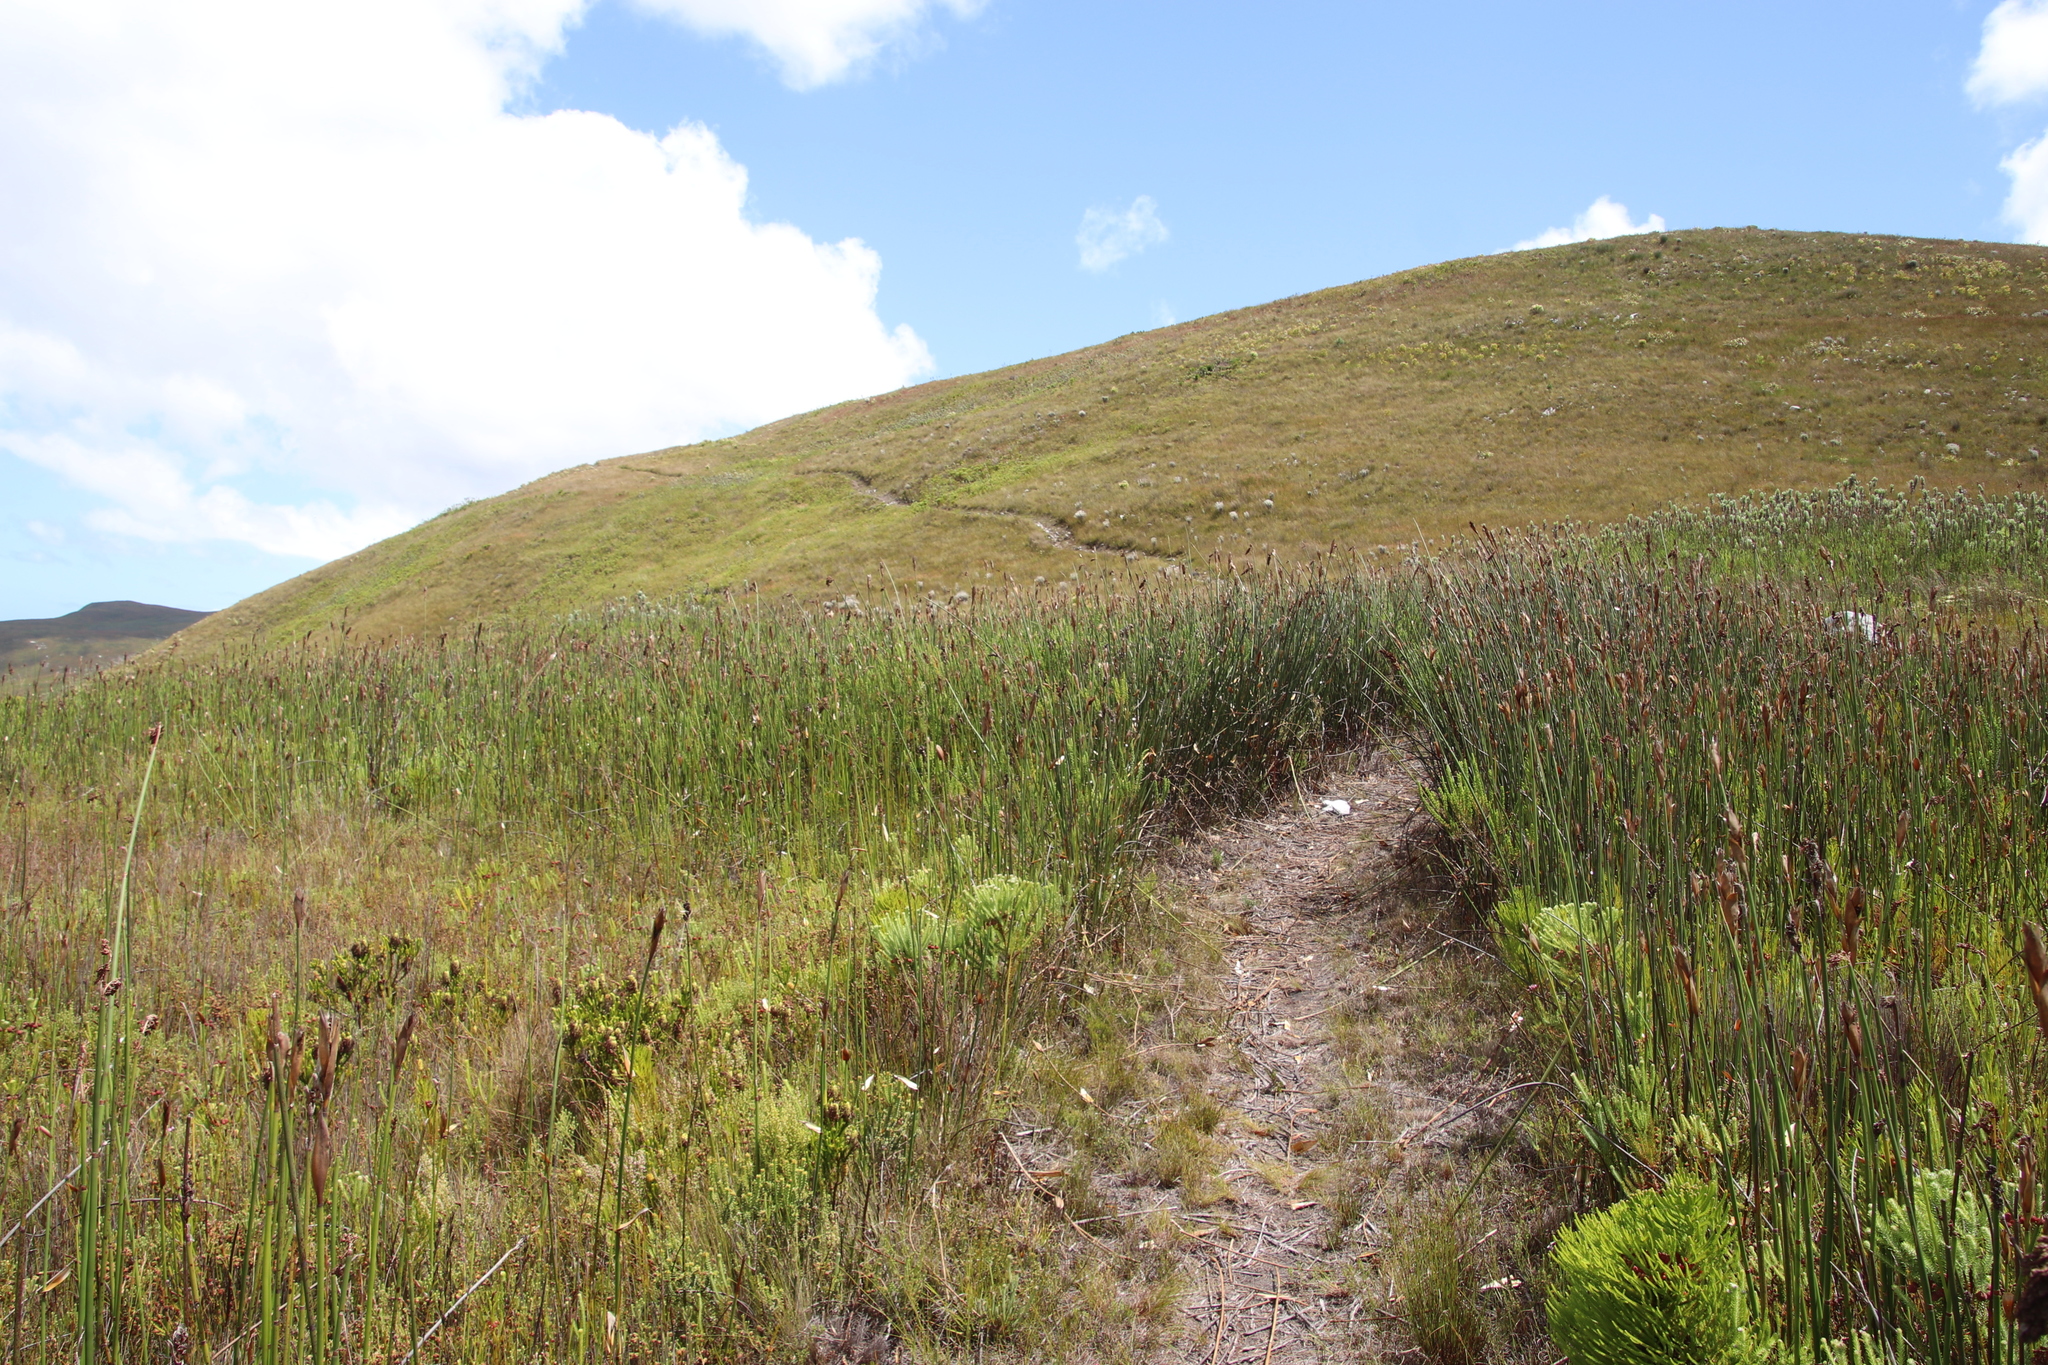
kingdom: Plantae
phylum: Tracheophyta
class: Liliopsida
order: Poales
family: Restionaceae
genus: Elegia
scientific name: Elegia mucronata
